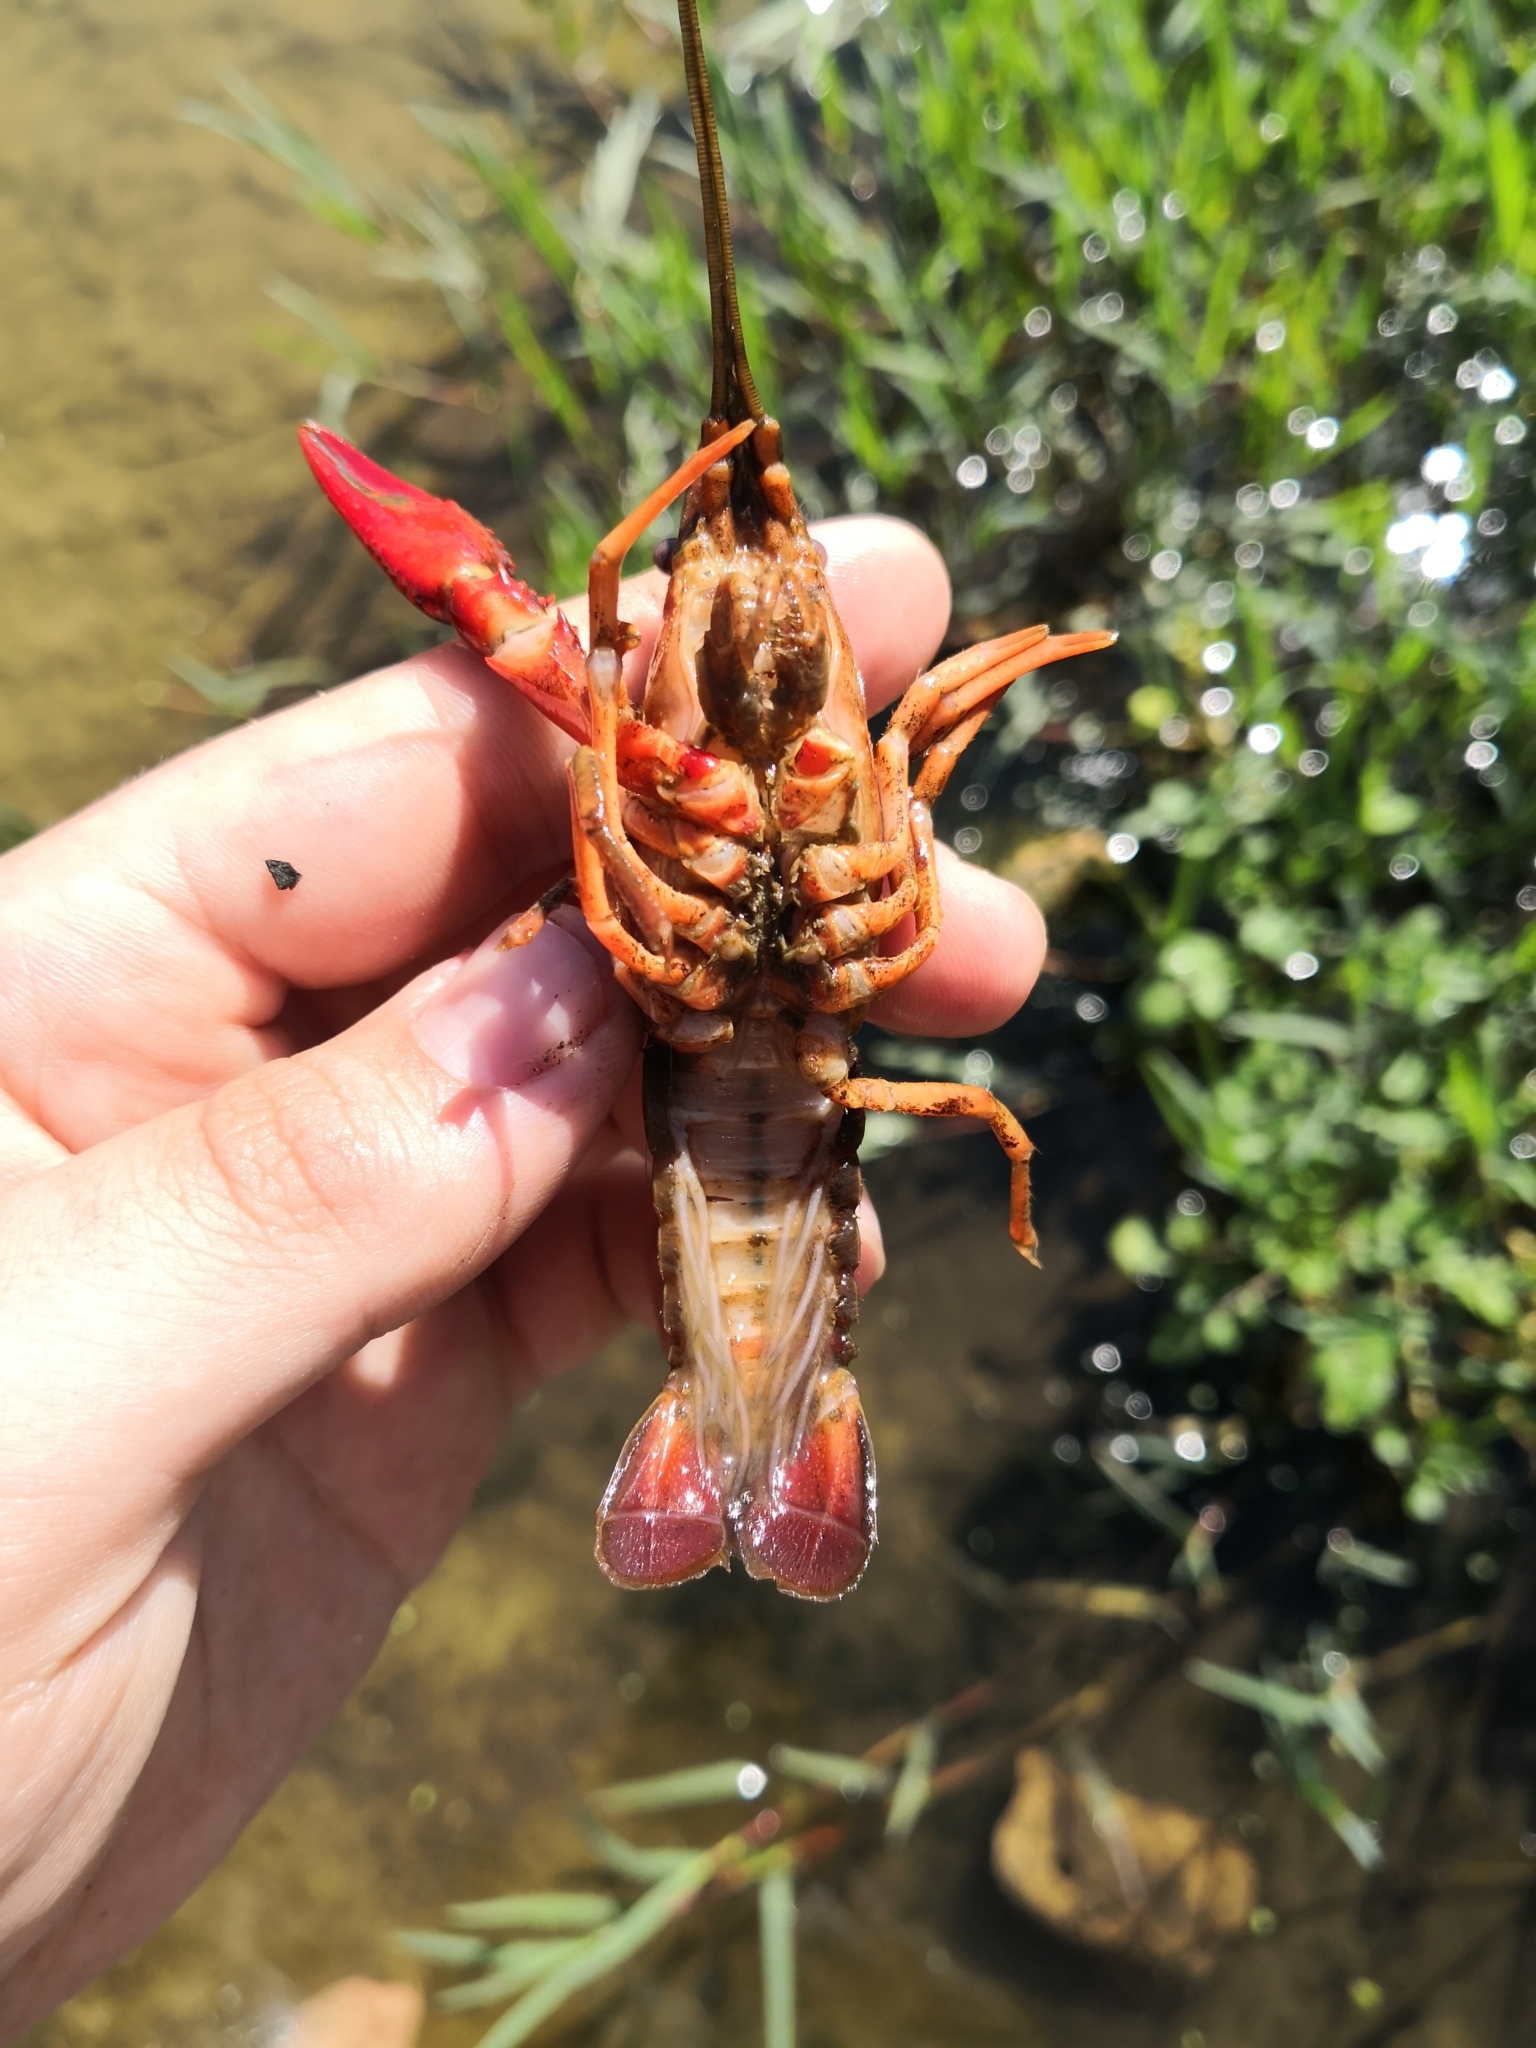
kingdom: Animalia
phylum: Arthropoda
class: Malacostraca
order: Decapoda
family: Cambaridae
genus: Procambarus
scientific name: Procambarus clarkii
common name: Red swamp crayfish
